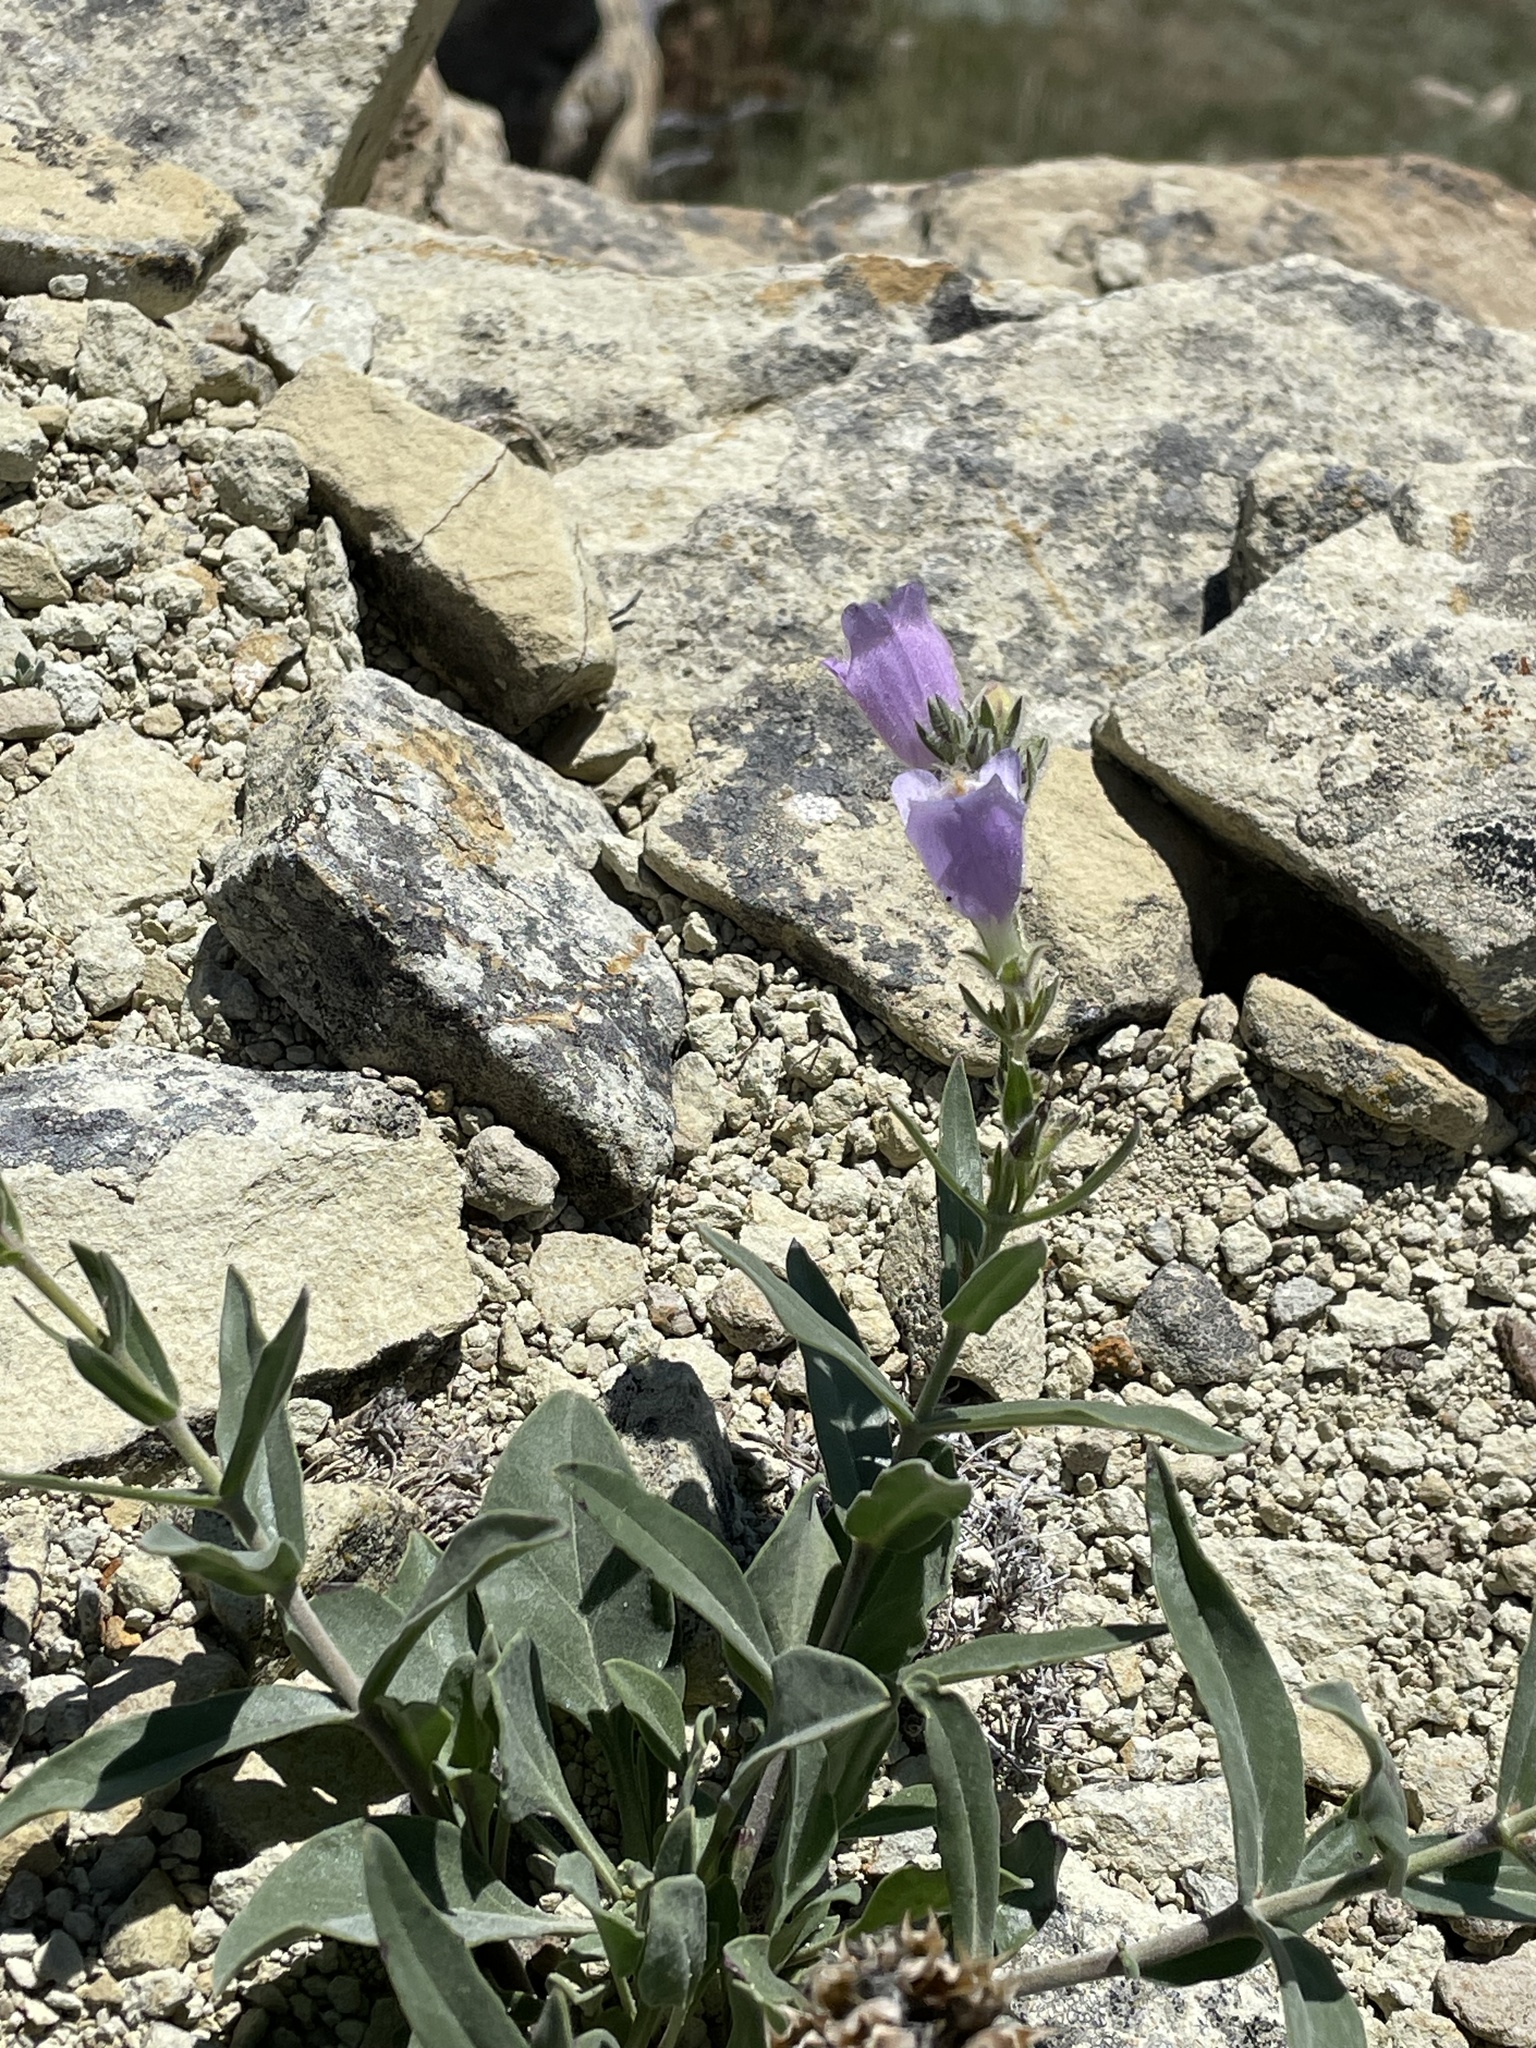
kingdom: Plantae
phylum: Tracheophyta
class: Magnoliopsida
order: Lamiales
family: Plantaginaceae
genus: Penstemon
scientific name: Penstemon eriantherus
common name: Crested beardtongue
